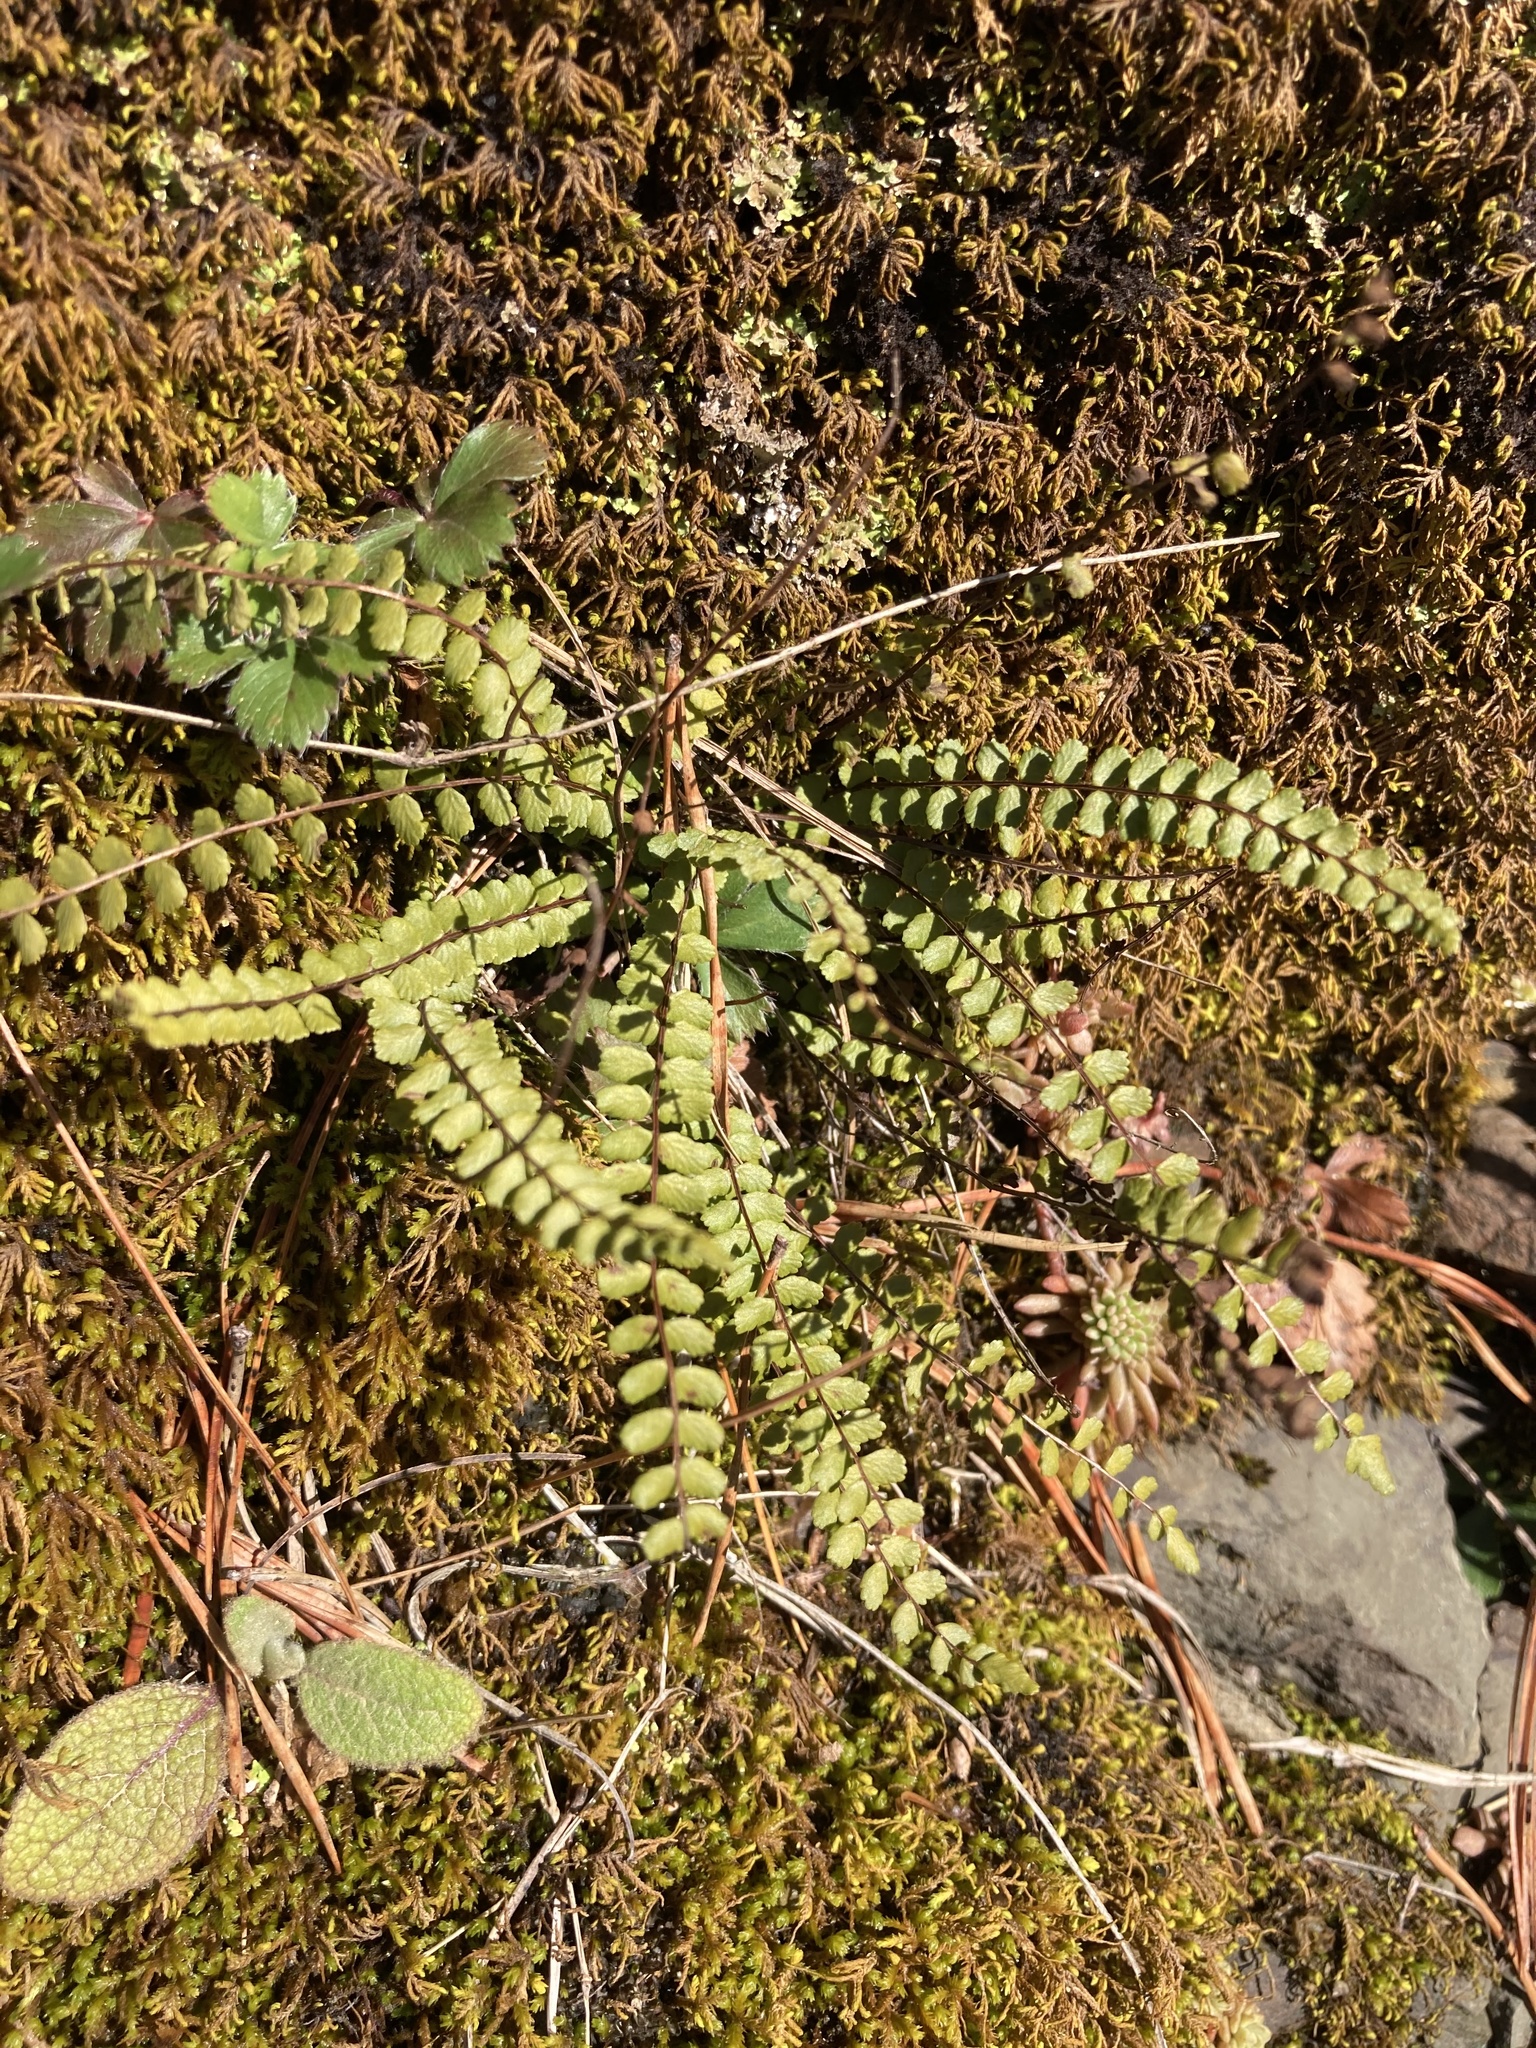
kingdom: Plantae
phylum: Tracheophyta
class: Polypodiopsida
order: Polypodiales
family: Aspleniaceae
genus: Asplenium
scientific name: Asplenium trichomanes
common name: Maidenhair spleenwort
